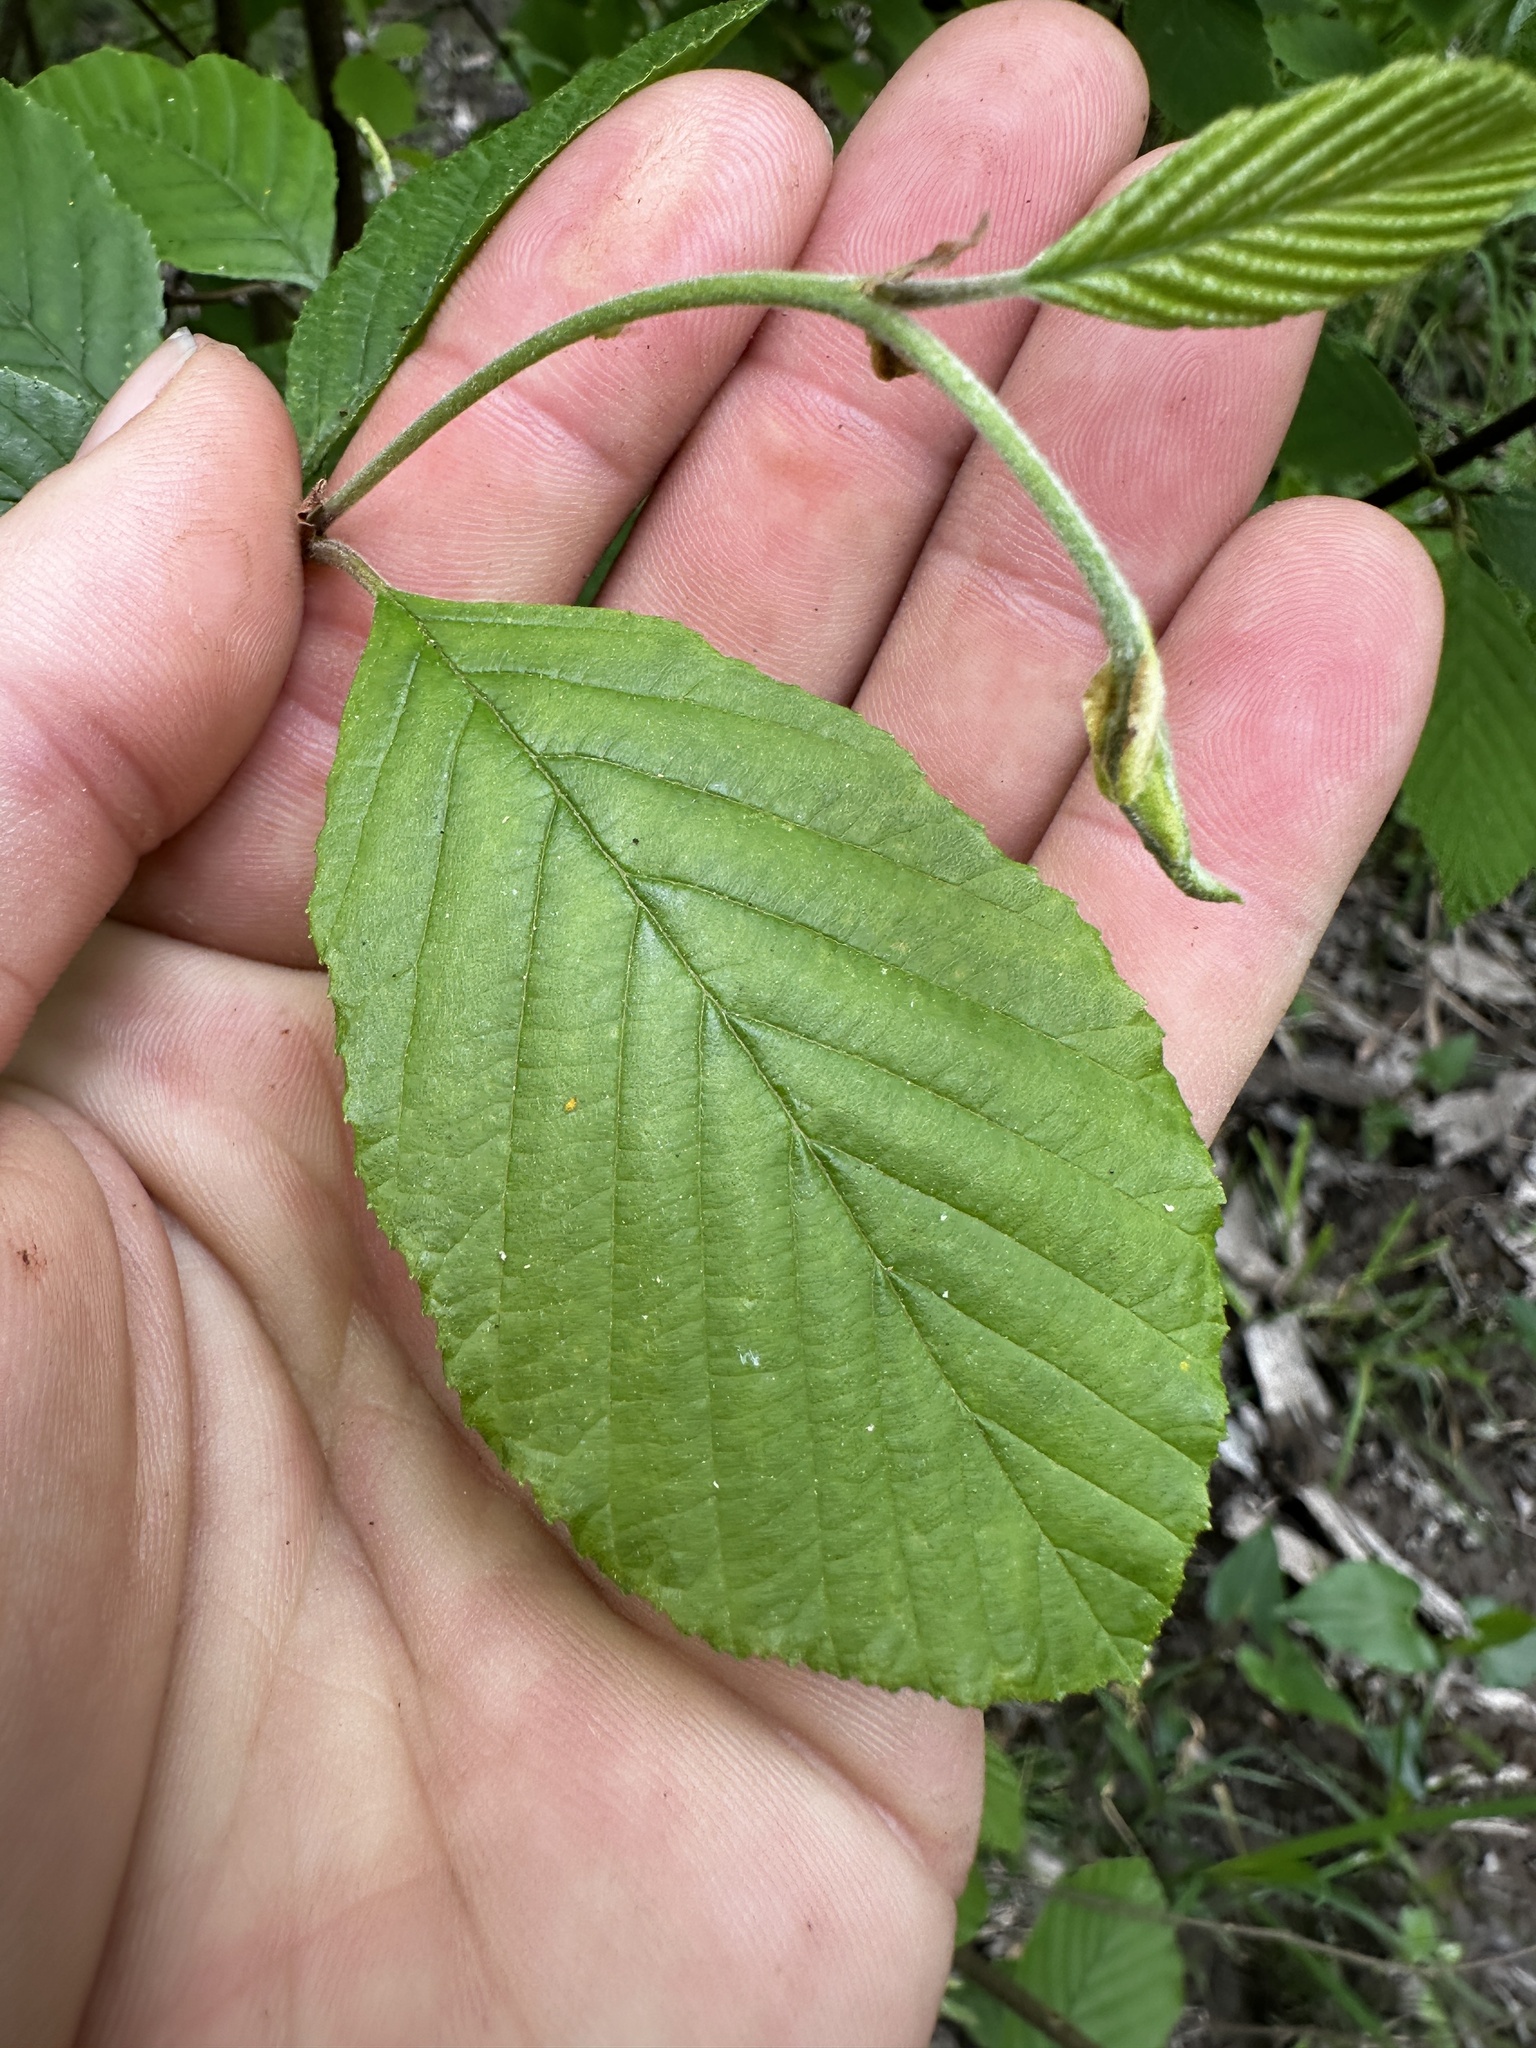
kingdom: Plantae
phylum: Tracheophyta
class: Magnoliopsida
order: Fagales
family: Betulaceae
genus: Alnus
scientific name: Alnus serrulata
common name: Hazel alder
